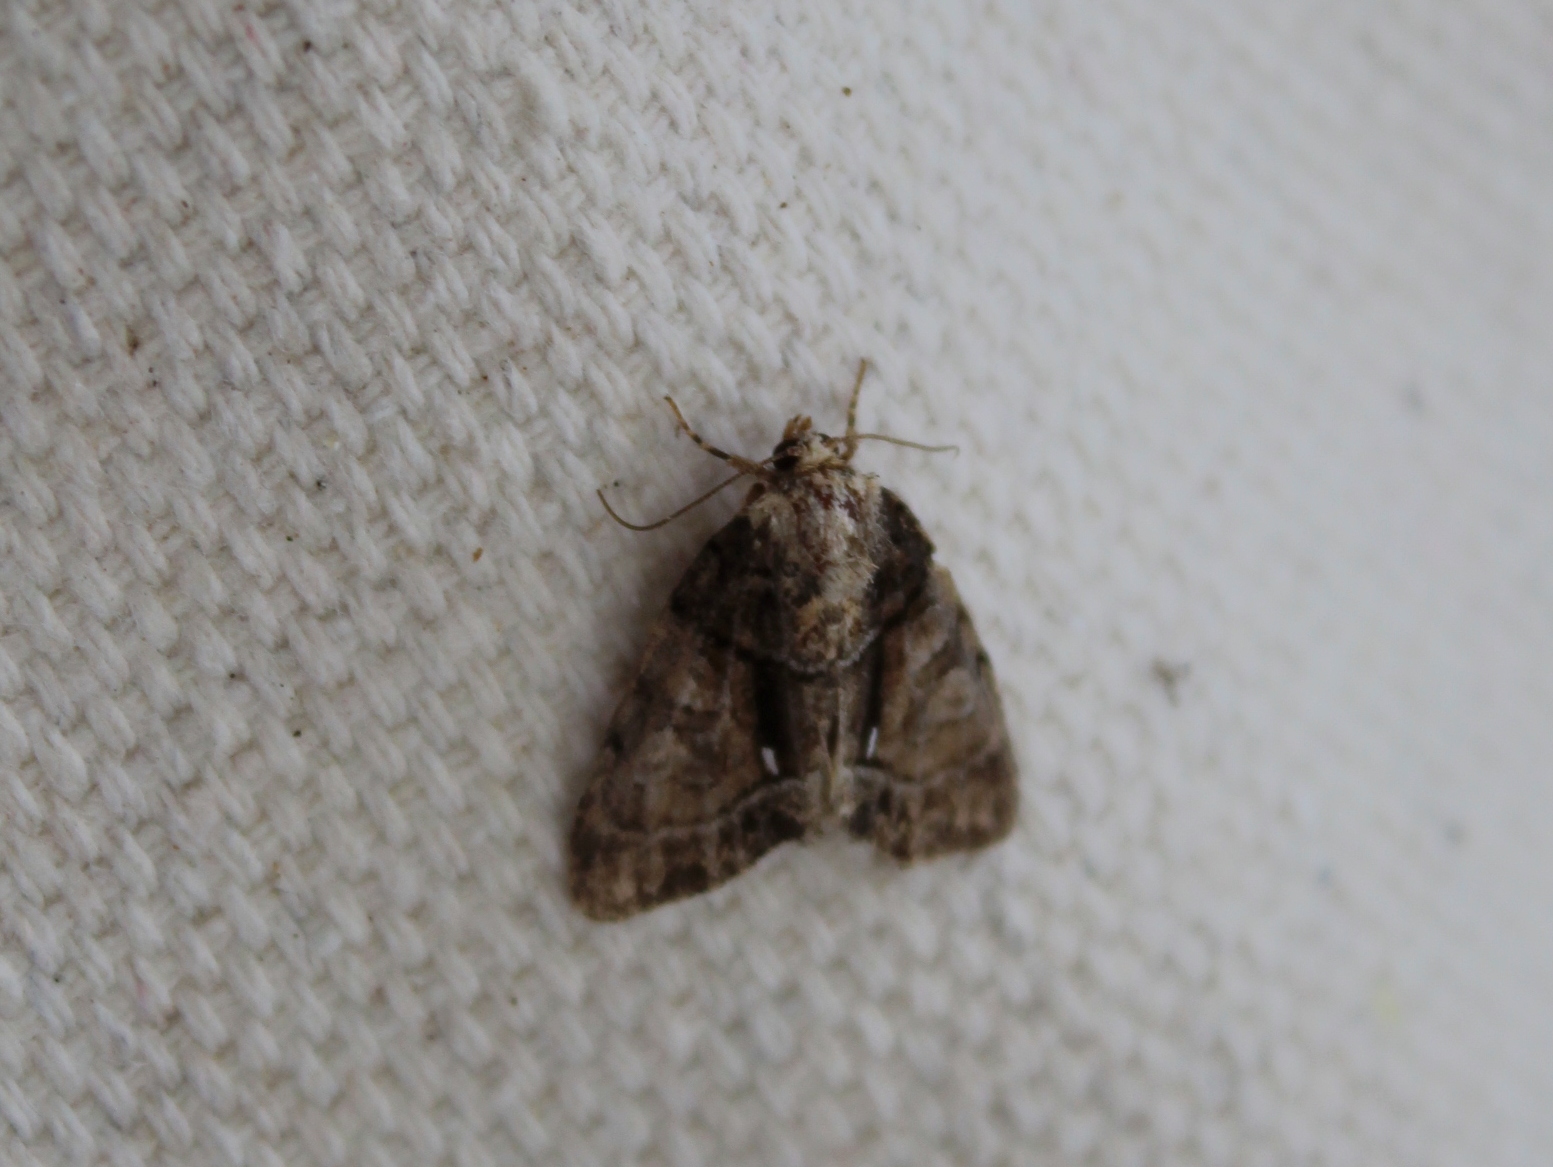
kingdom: Animalia
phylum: Arthropoda
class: Insecta
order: Lepidoptera
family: Noctuidae
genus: Chytonix
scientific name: Chytonix palliatricula
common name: Cloaked marvel
